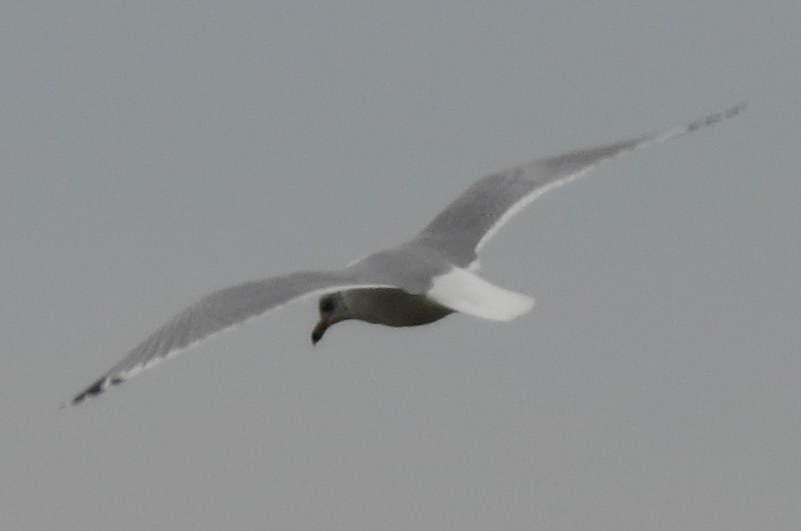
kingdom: Animalia
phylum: Chordata
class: Aves
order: Charadriiformes
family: Laridae
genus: Larus
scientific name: Larus delawarensis
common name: Ring-billed gull
